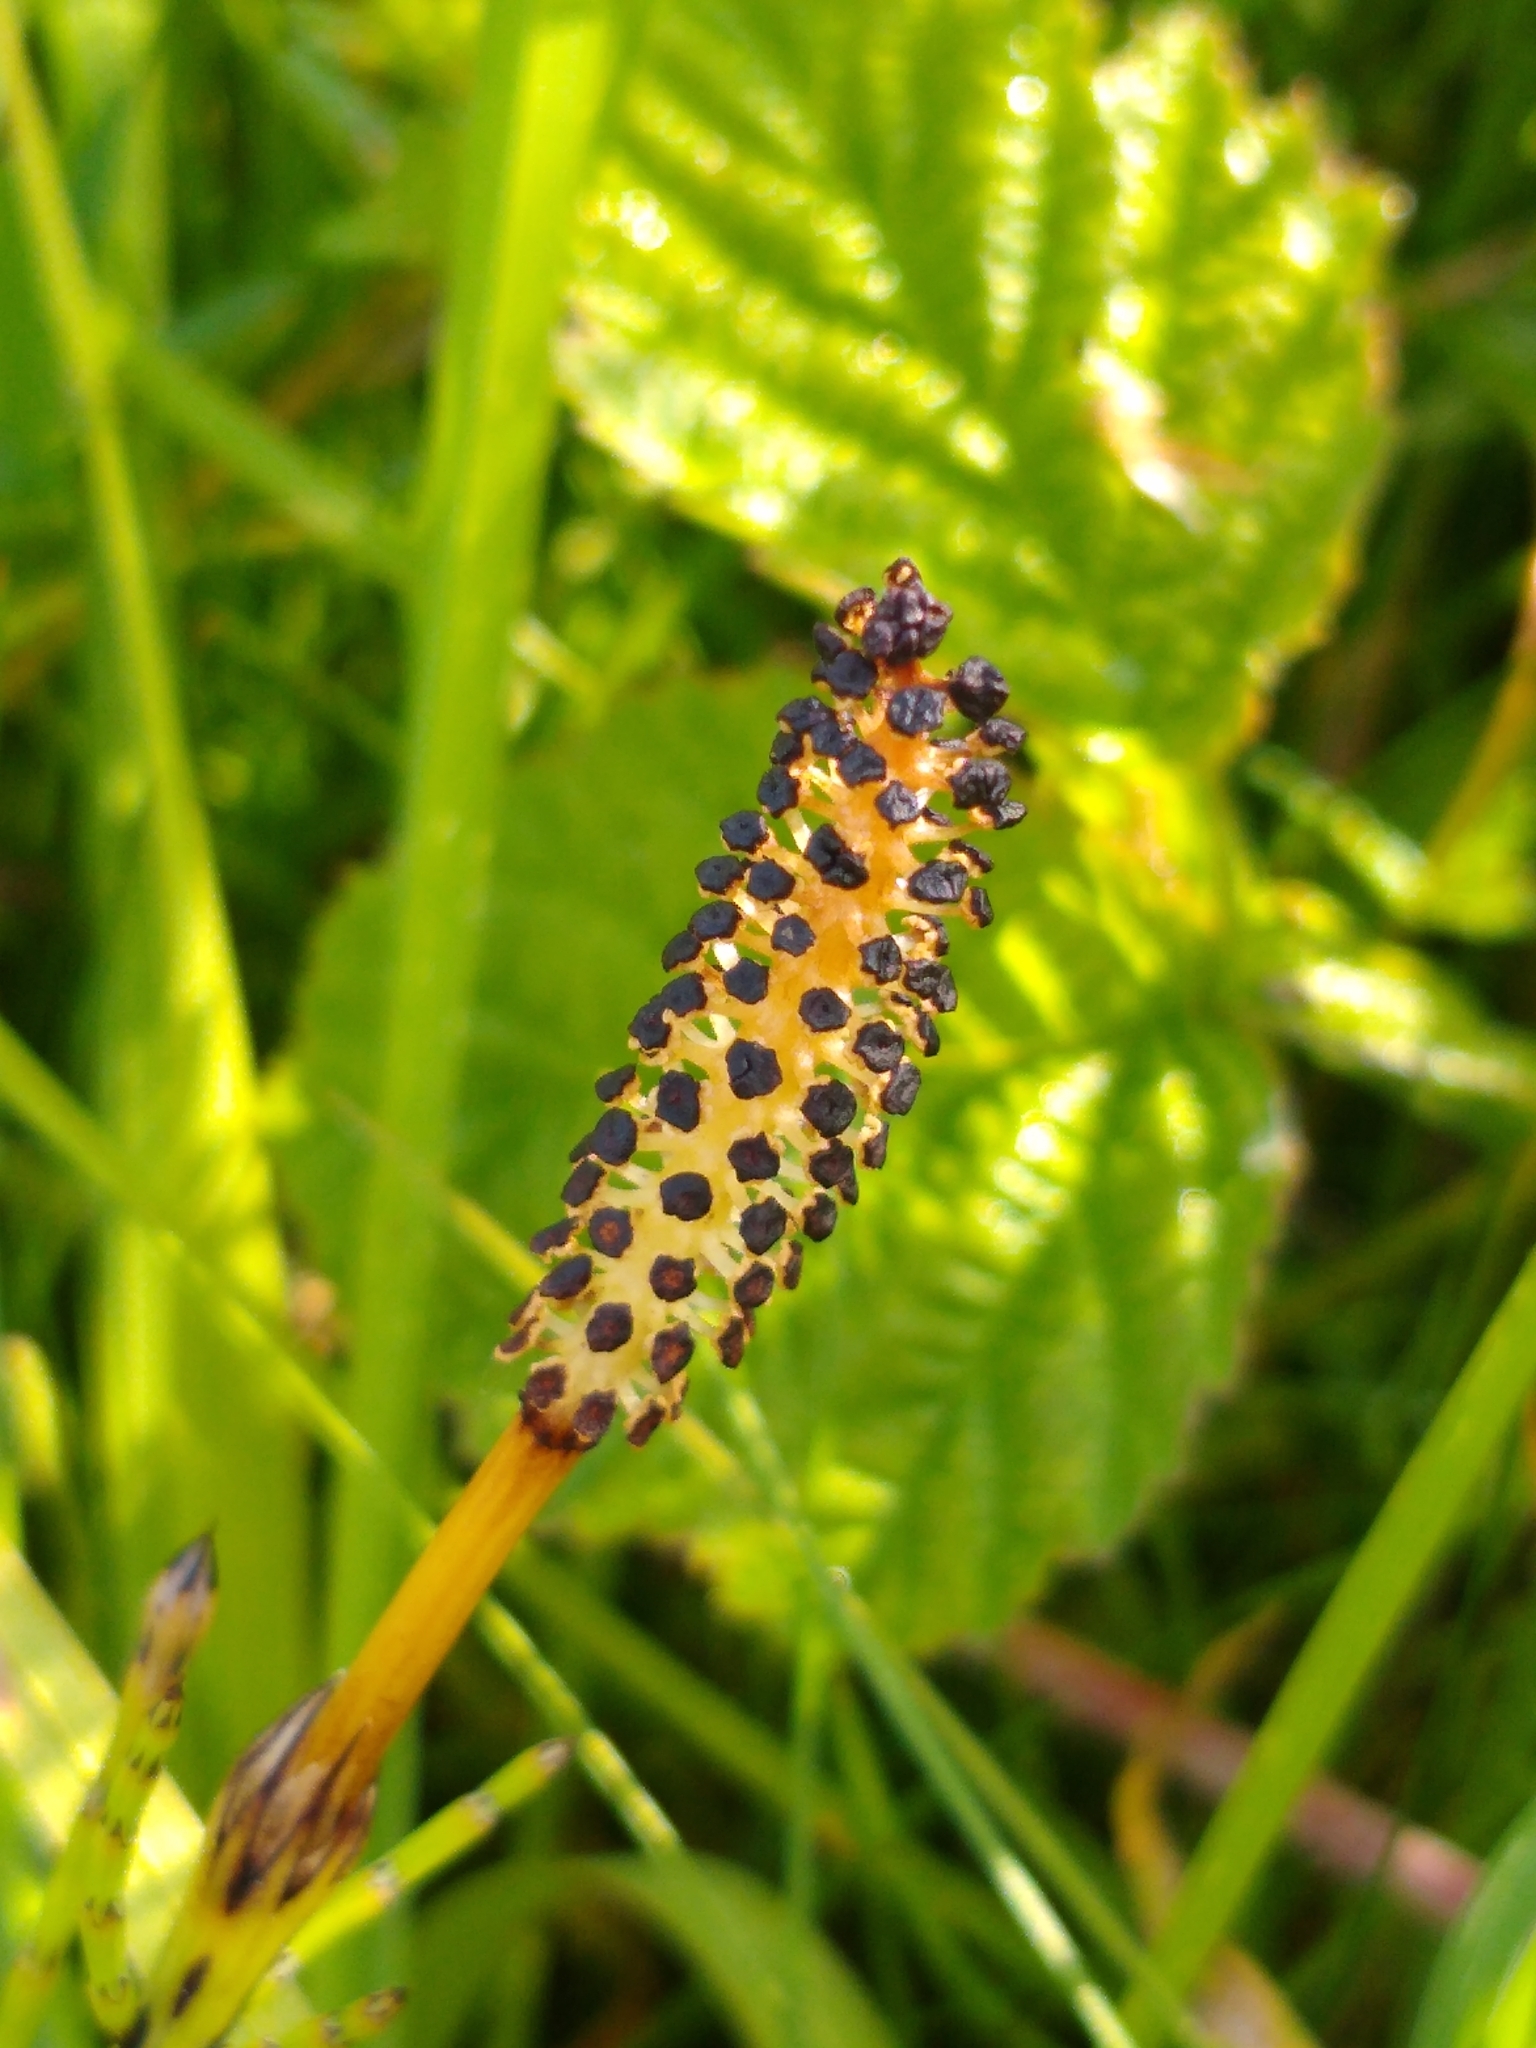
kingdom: Plantae
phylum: Tracheophyta
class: Polypodiopsida
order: Equisetales
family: Equisetaceae
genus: Equisetum
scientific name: Equisetum palustre
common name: Marsh horsetail
